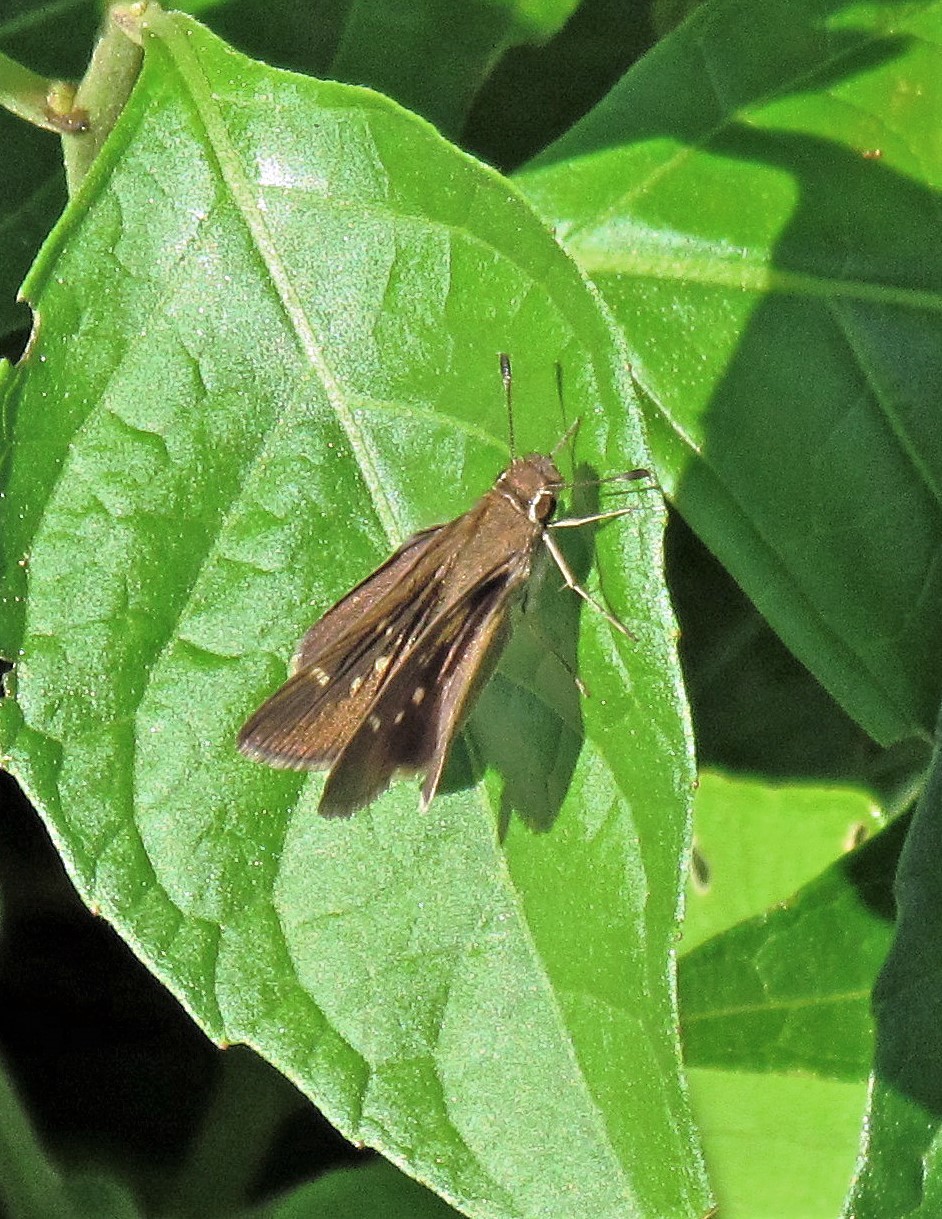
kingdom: Animalia
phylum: Arthropoda
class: Insecta
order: Lepidoptera
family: Hesperiidae
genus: Lerodea
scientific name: Lerodea eufala
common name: Eufala skipper
